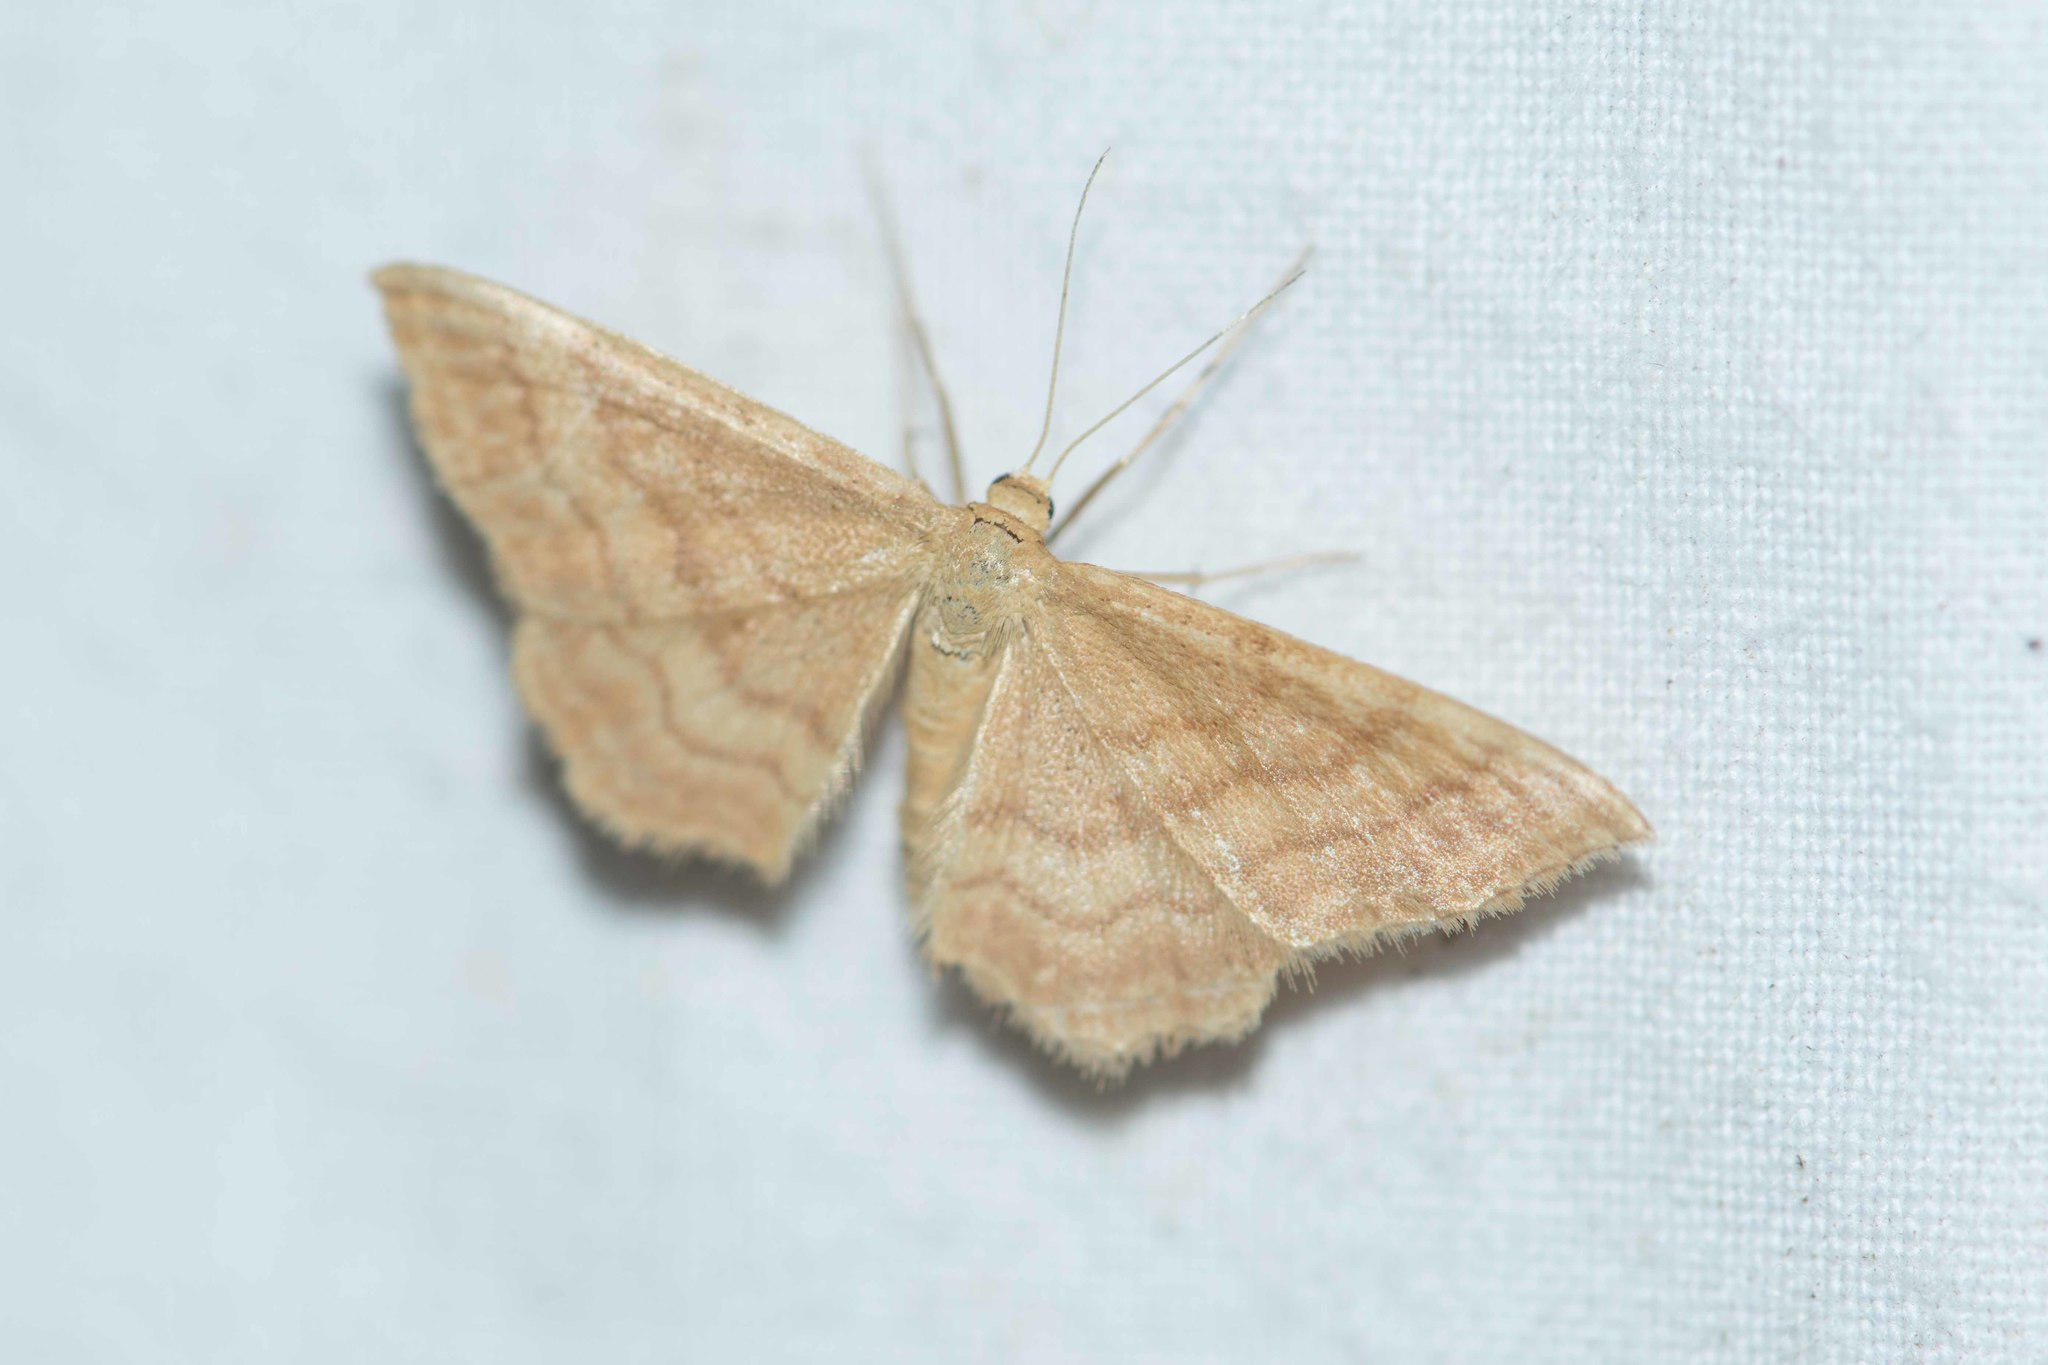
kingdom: Animalia
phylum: Arthropoda
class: Insecta
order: Lepidoptera
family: Geometridae
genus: Idaea
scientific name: Idaea ochrata
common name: Bright wave
